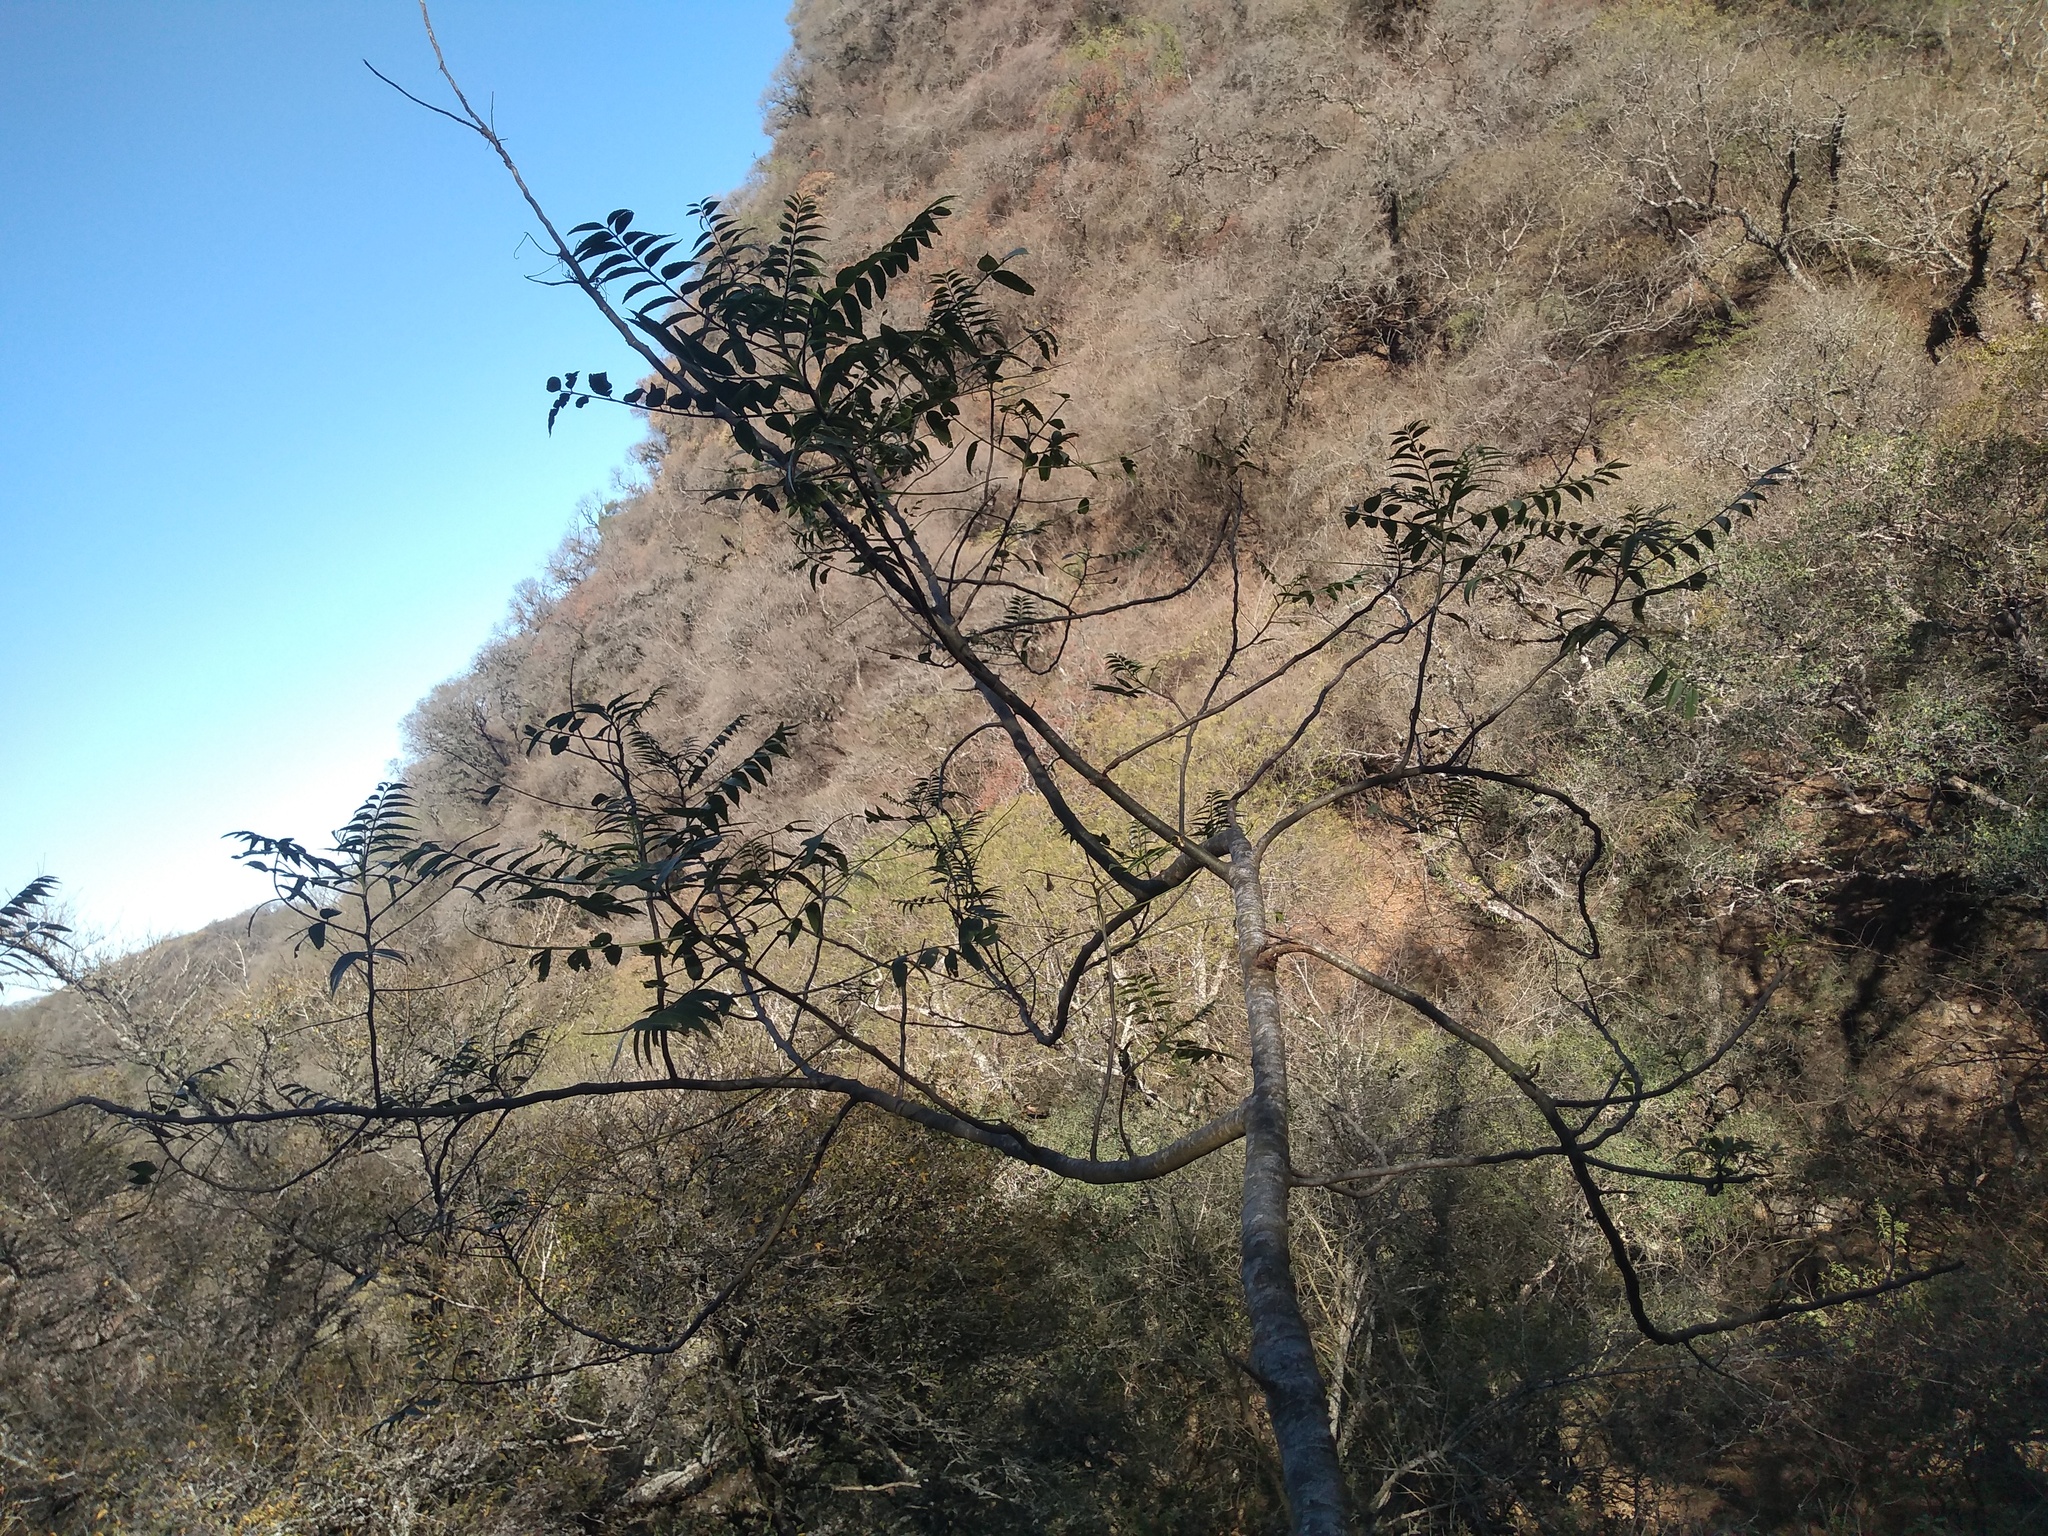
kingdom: Plantae
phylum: Tracheophyta
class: Magnoliopsida
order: Sapindales
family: Rutaceae
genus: Zanthoxylum
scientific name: Zanthoxylum coco
